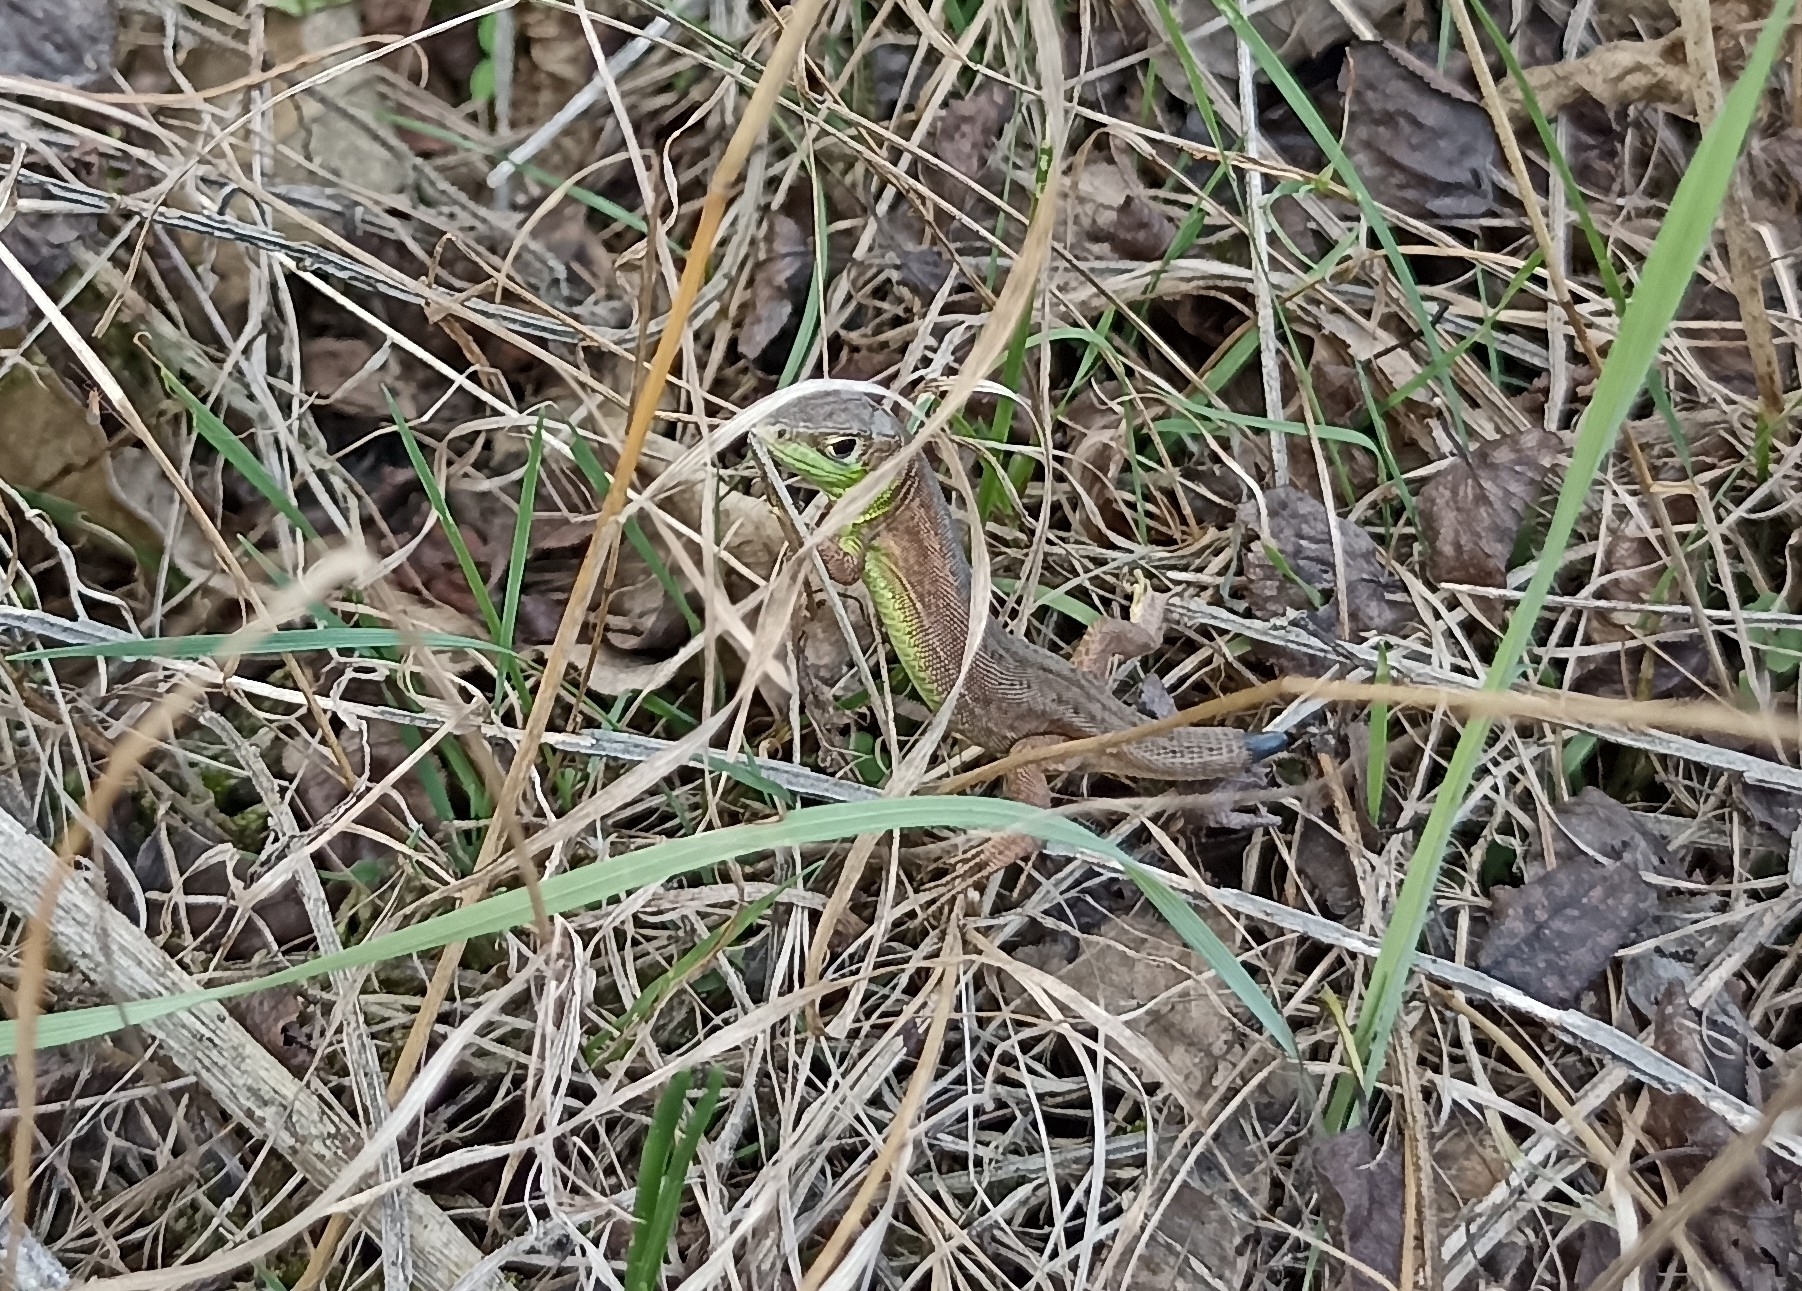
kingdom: Animalia
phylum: Chordata
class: Squamata
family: Lacertidae
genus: Lacerta
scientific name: Lacerta bilineata
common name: Western green lizard
